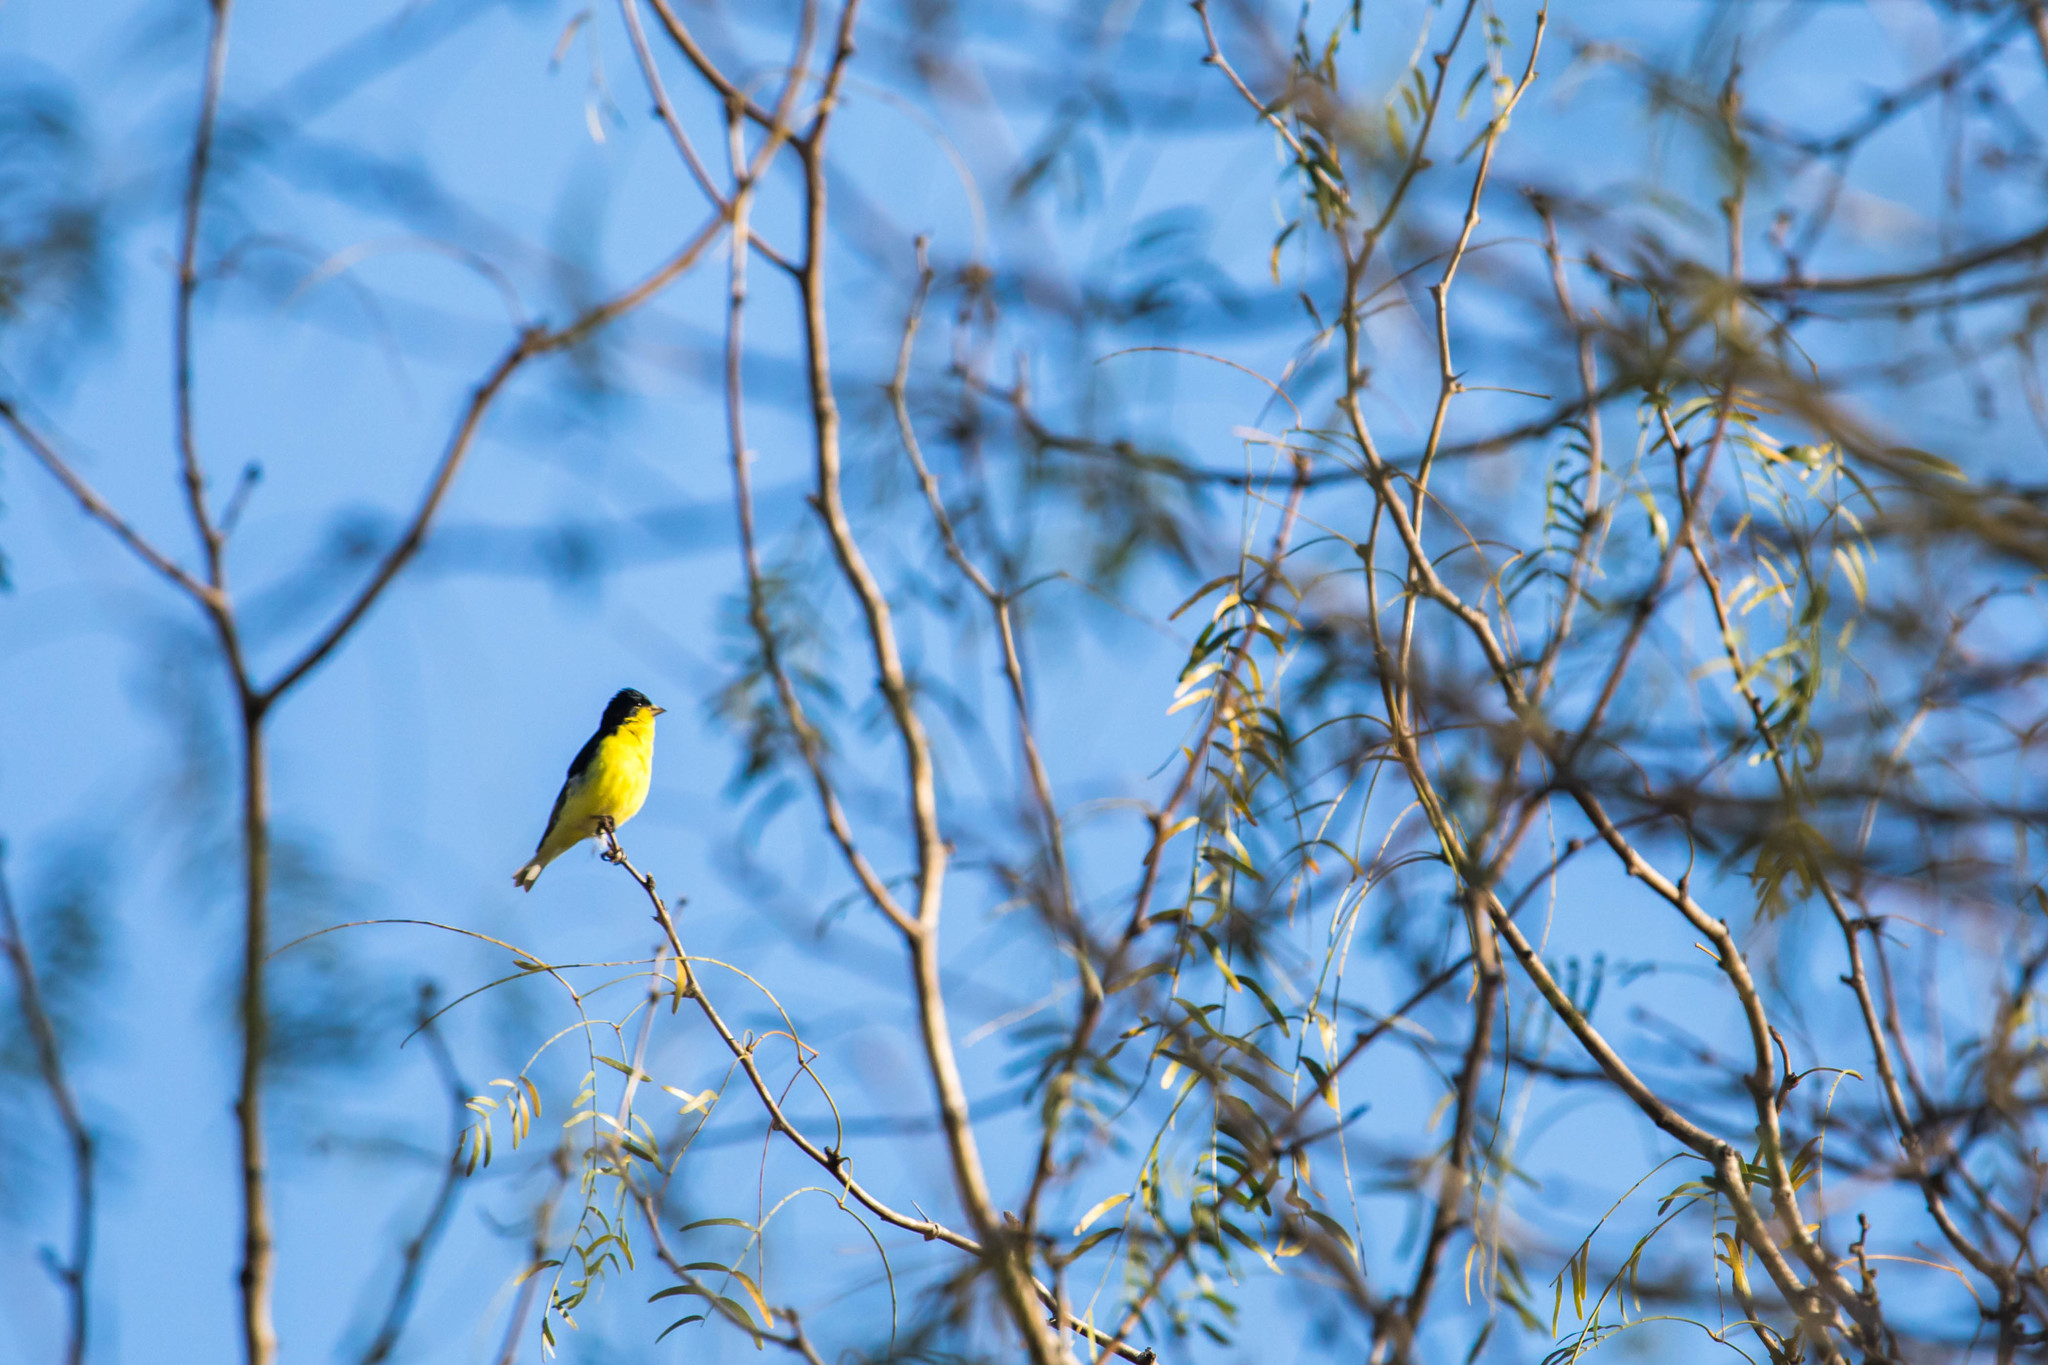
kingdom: Animalia
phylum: Chordata
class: Aves
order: Passeriformes
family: Fringillidae
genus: Spinus
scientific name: Spinus psaltria
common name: Lesser goldfinch
